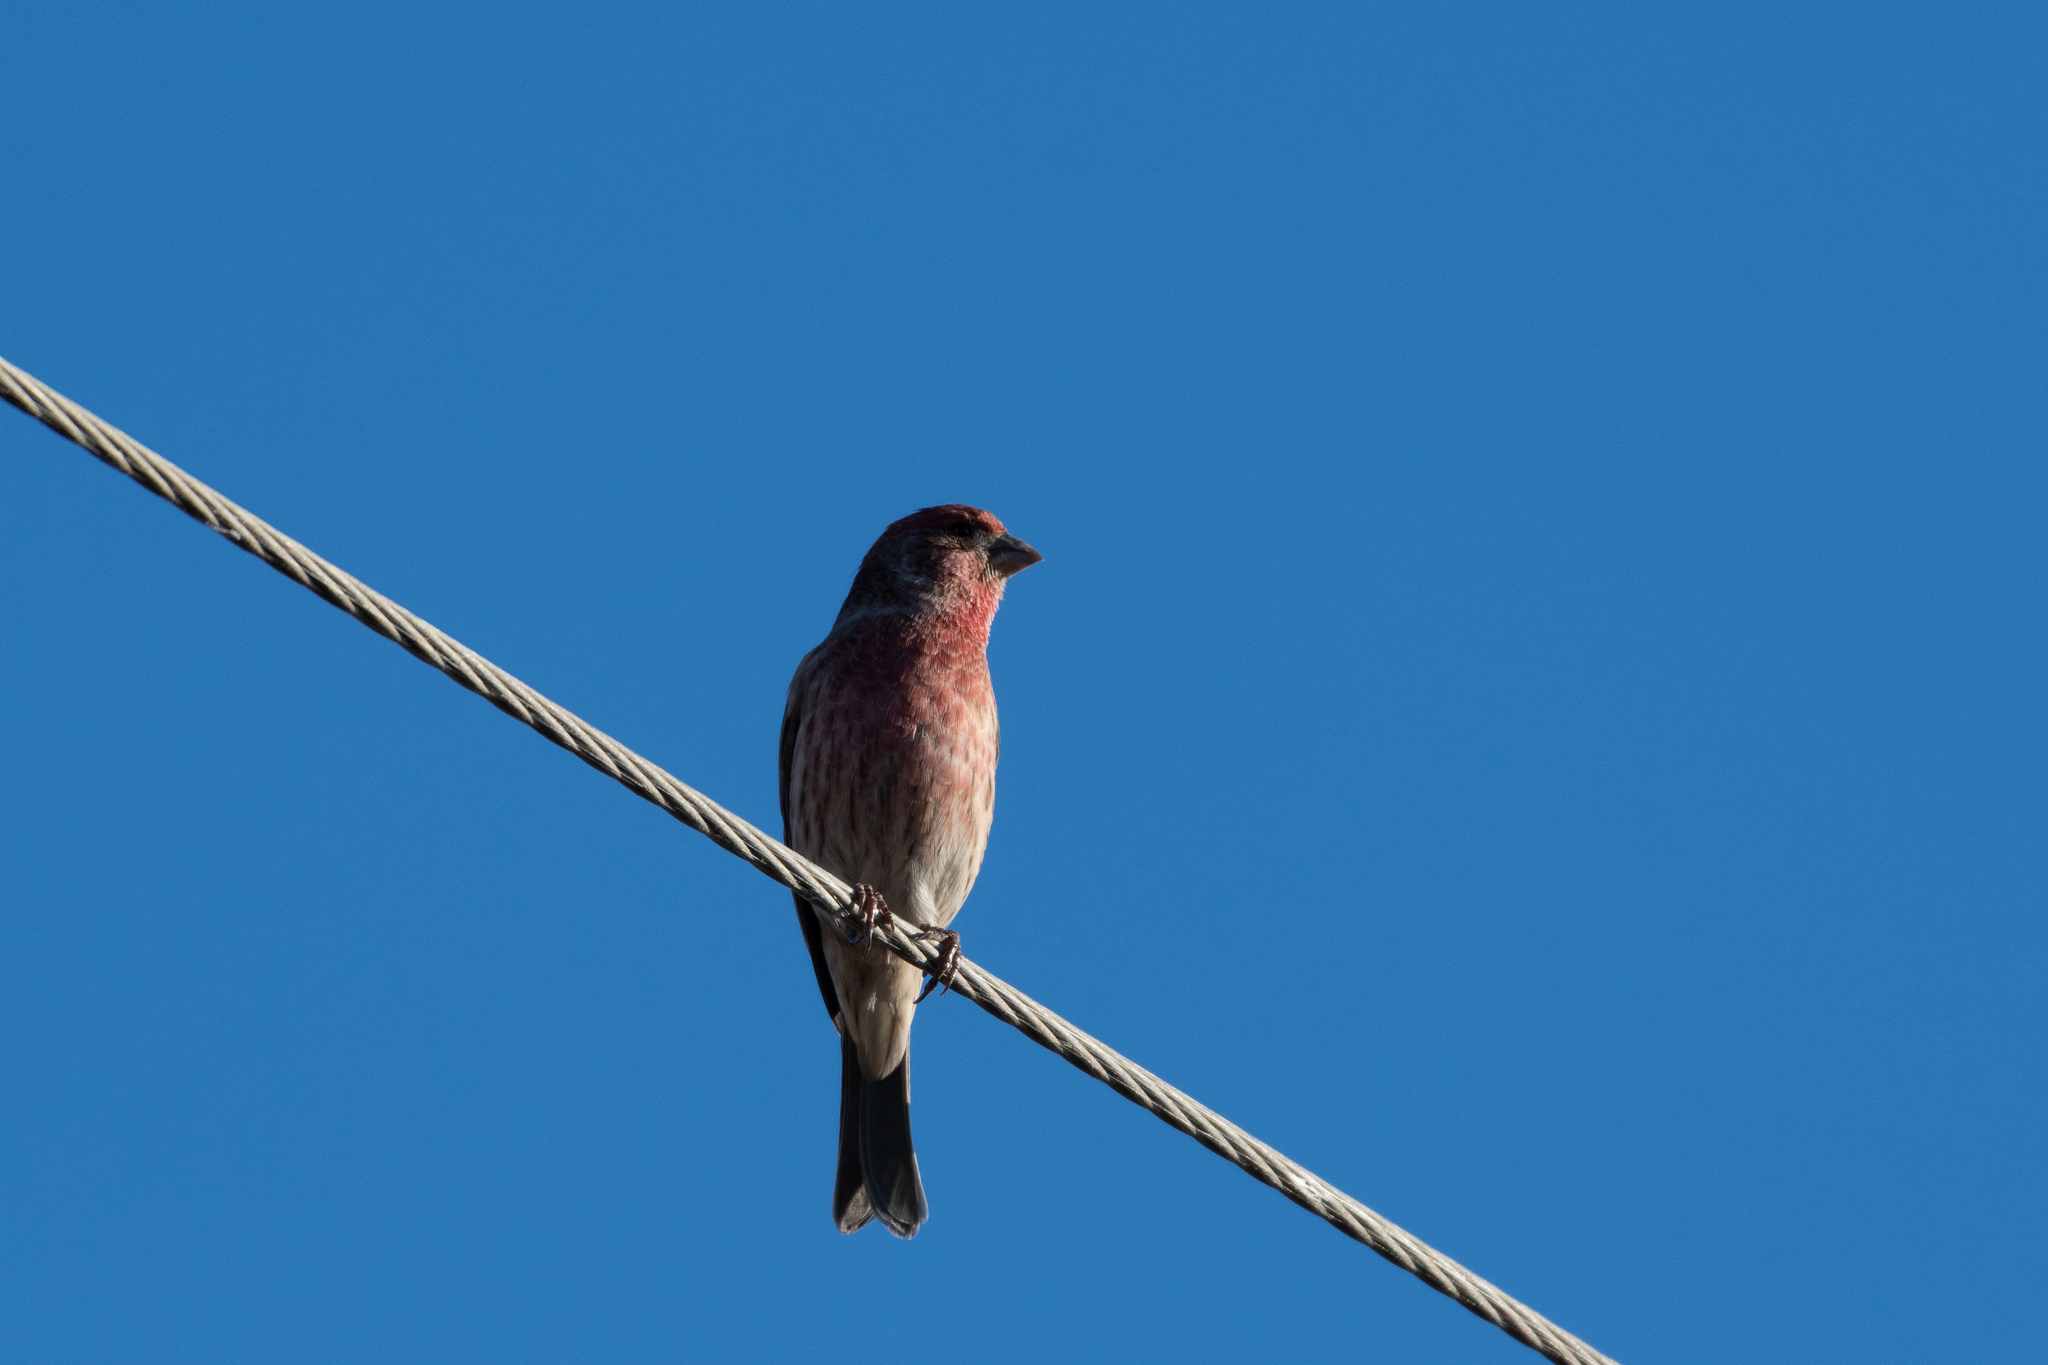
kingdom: Animalia
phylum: Chordata
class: Aves
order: Passeriformes
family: Fringillidae
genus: Haemorhous
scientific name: Haemorhous mexicanus
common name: House finch
